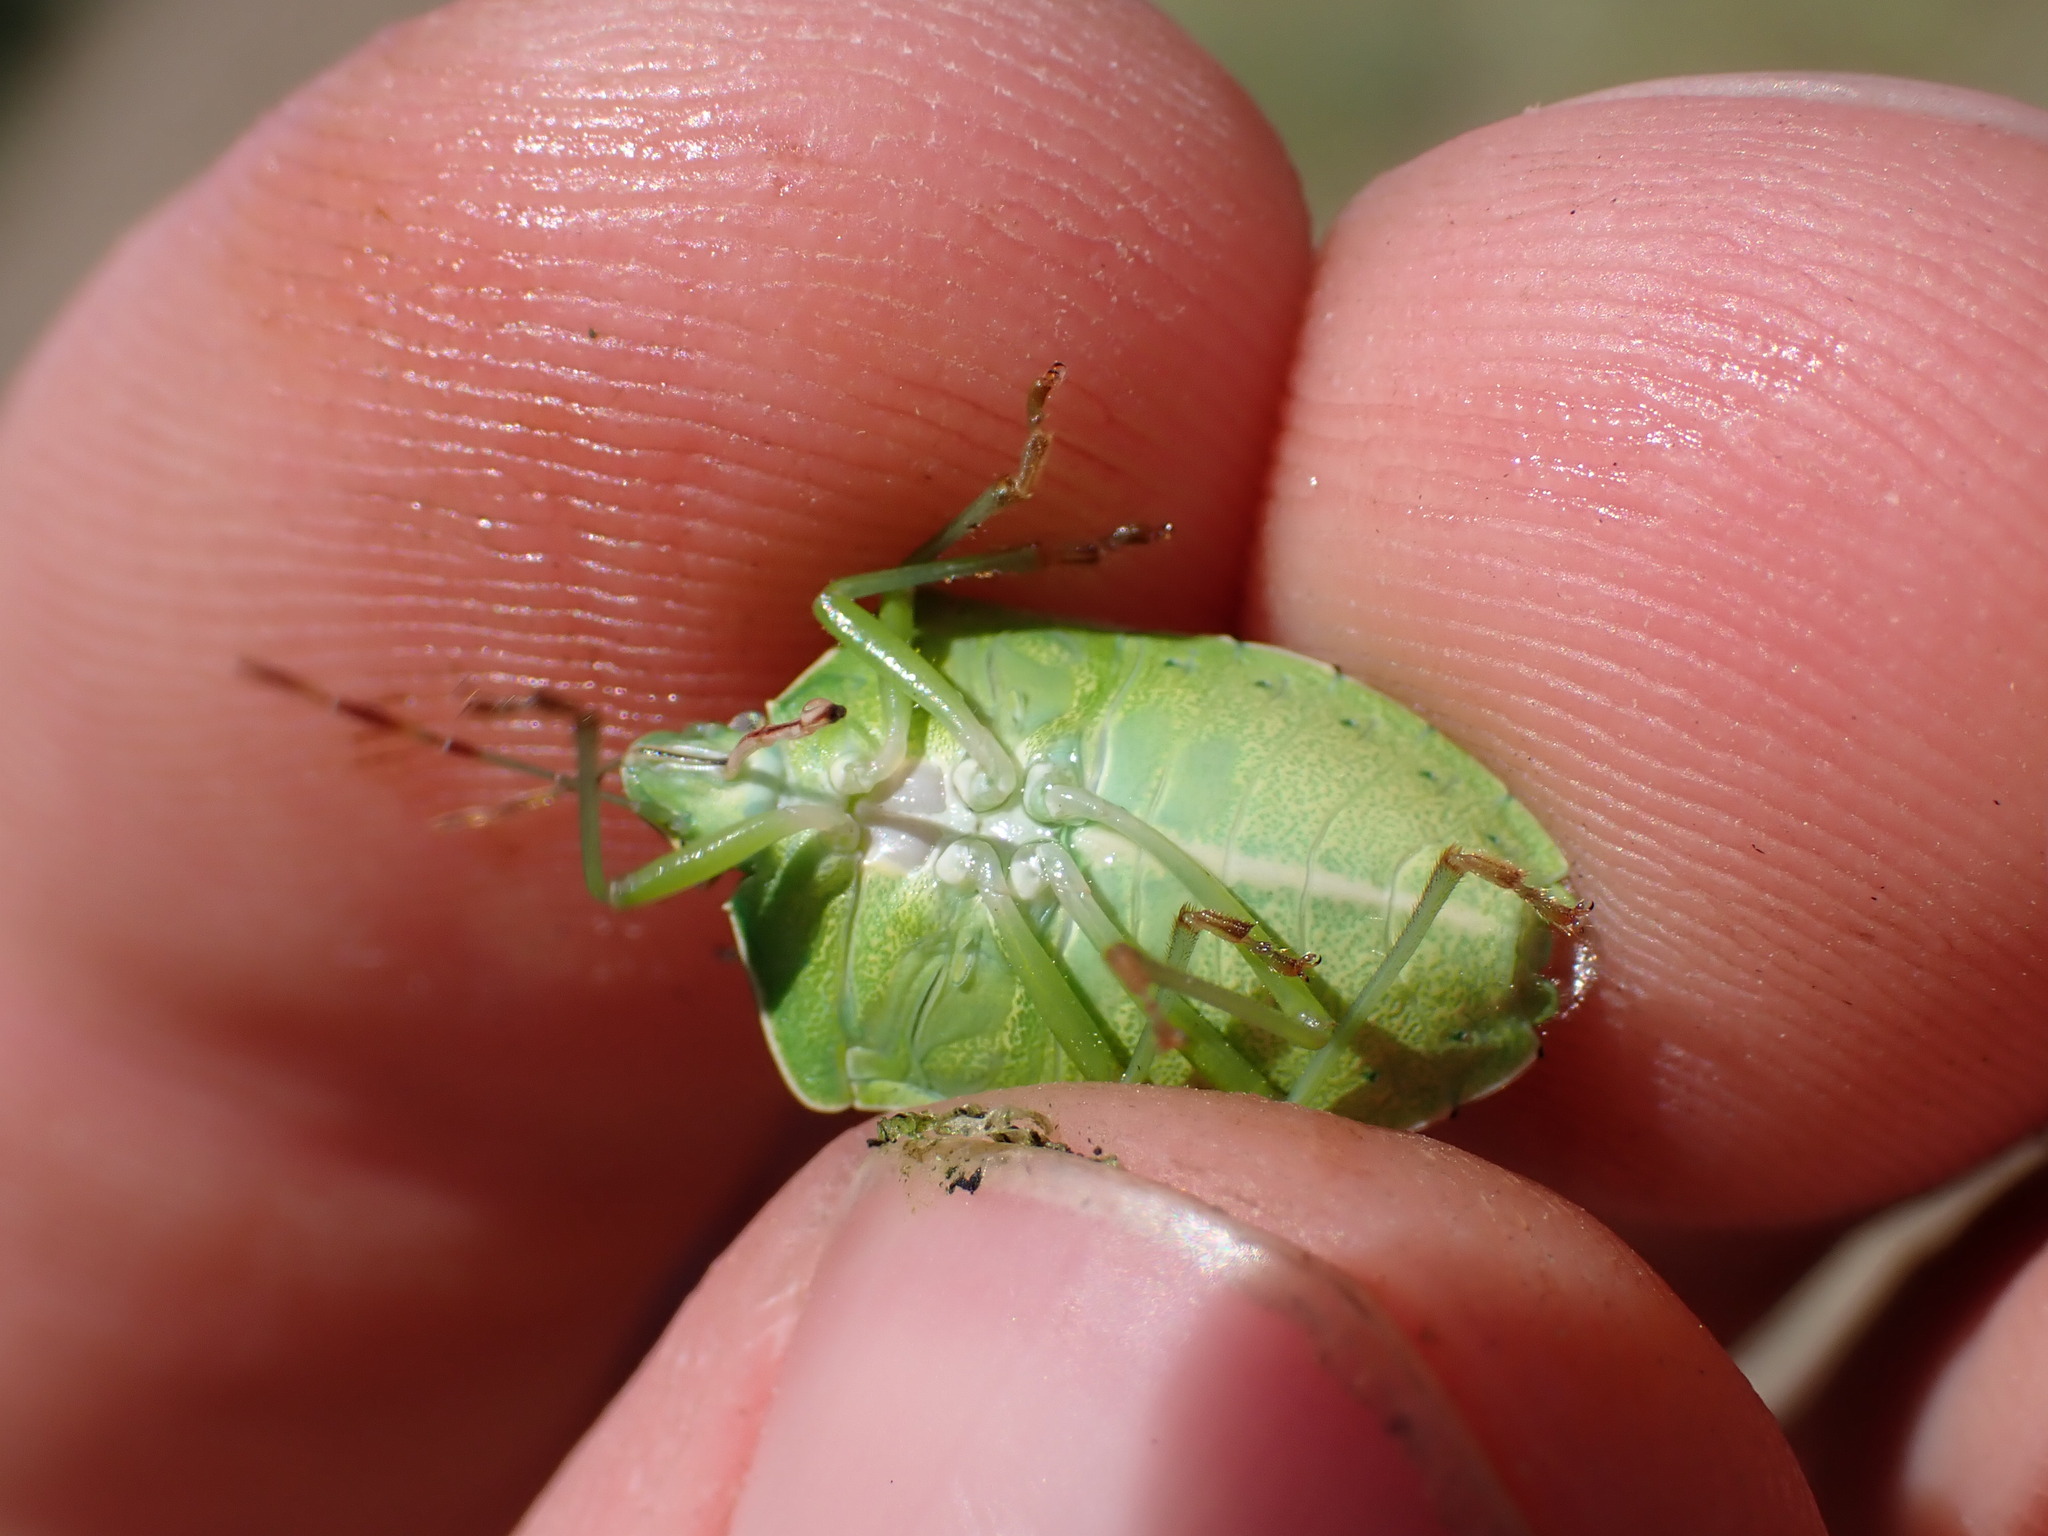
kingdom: Animalia
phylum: Arthropoda
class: Insecta
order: Hemiptera
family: Pentatomidae
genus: Nezara
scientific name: Nezara viridula
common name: Southern green stink bug
